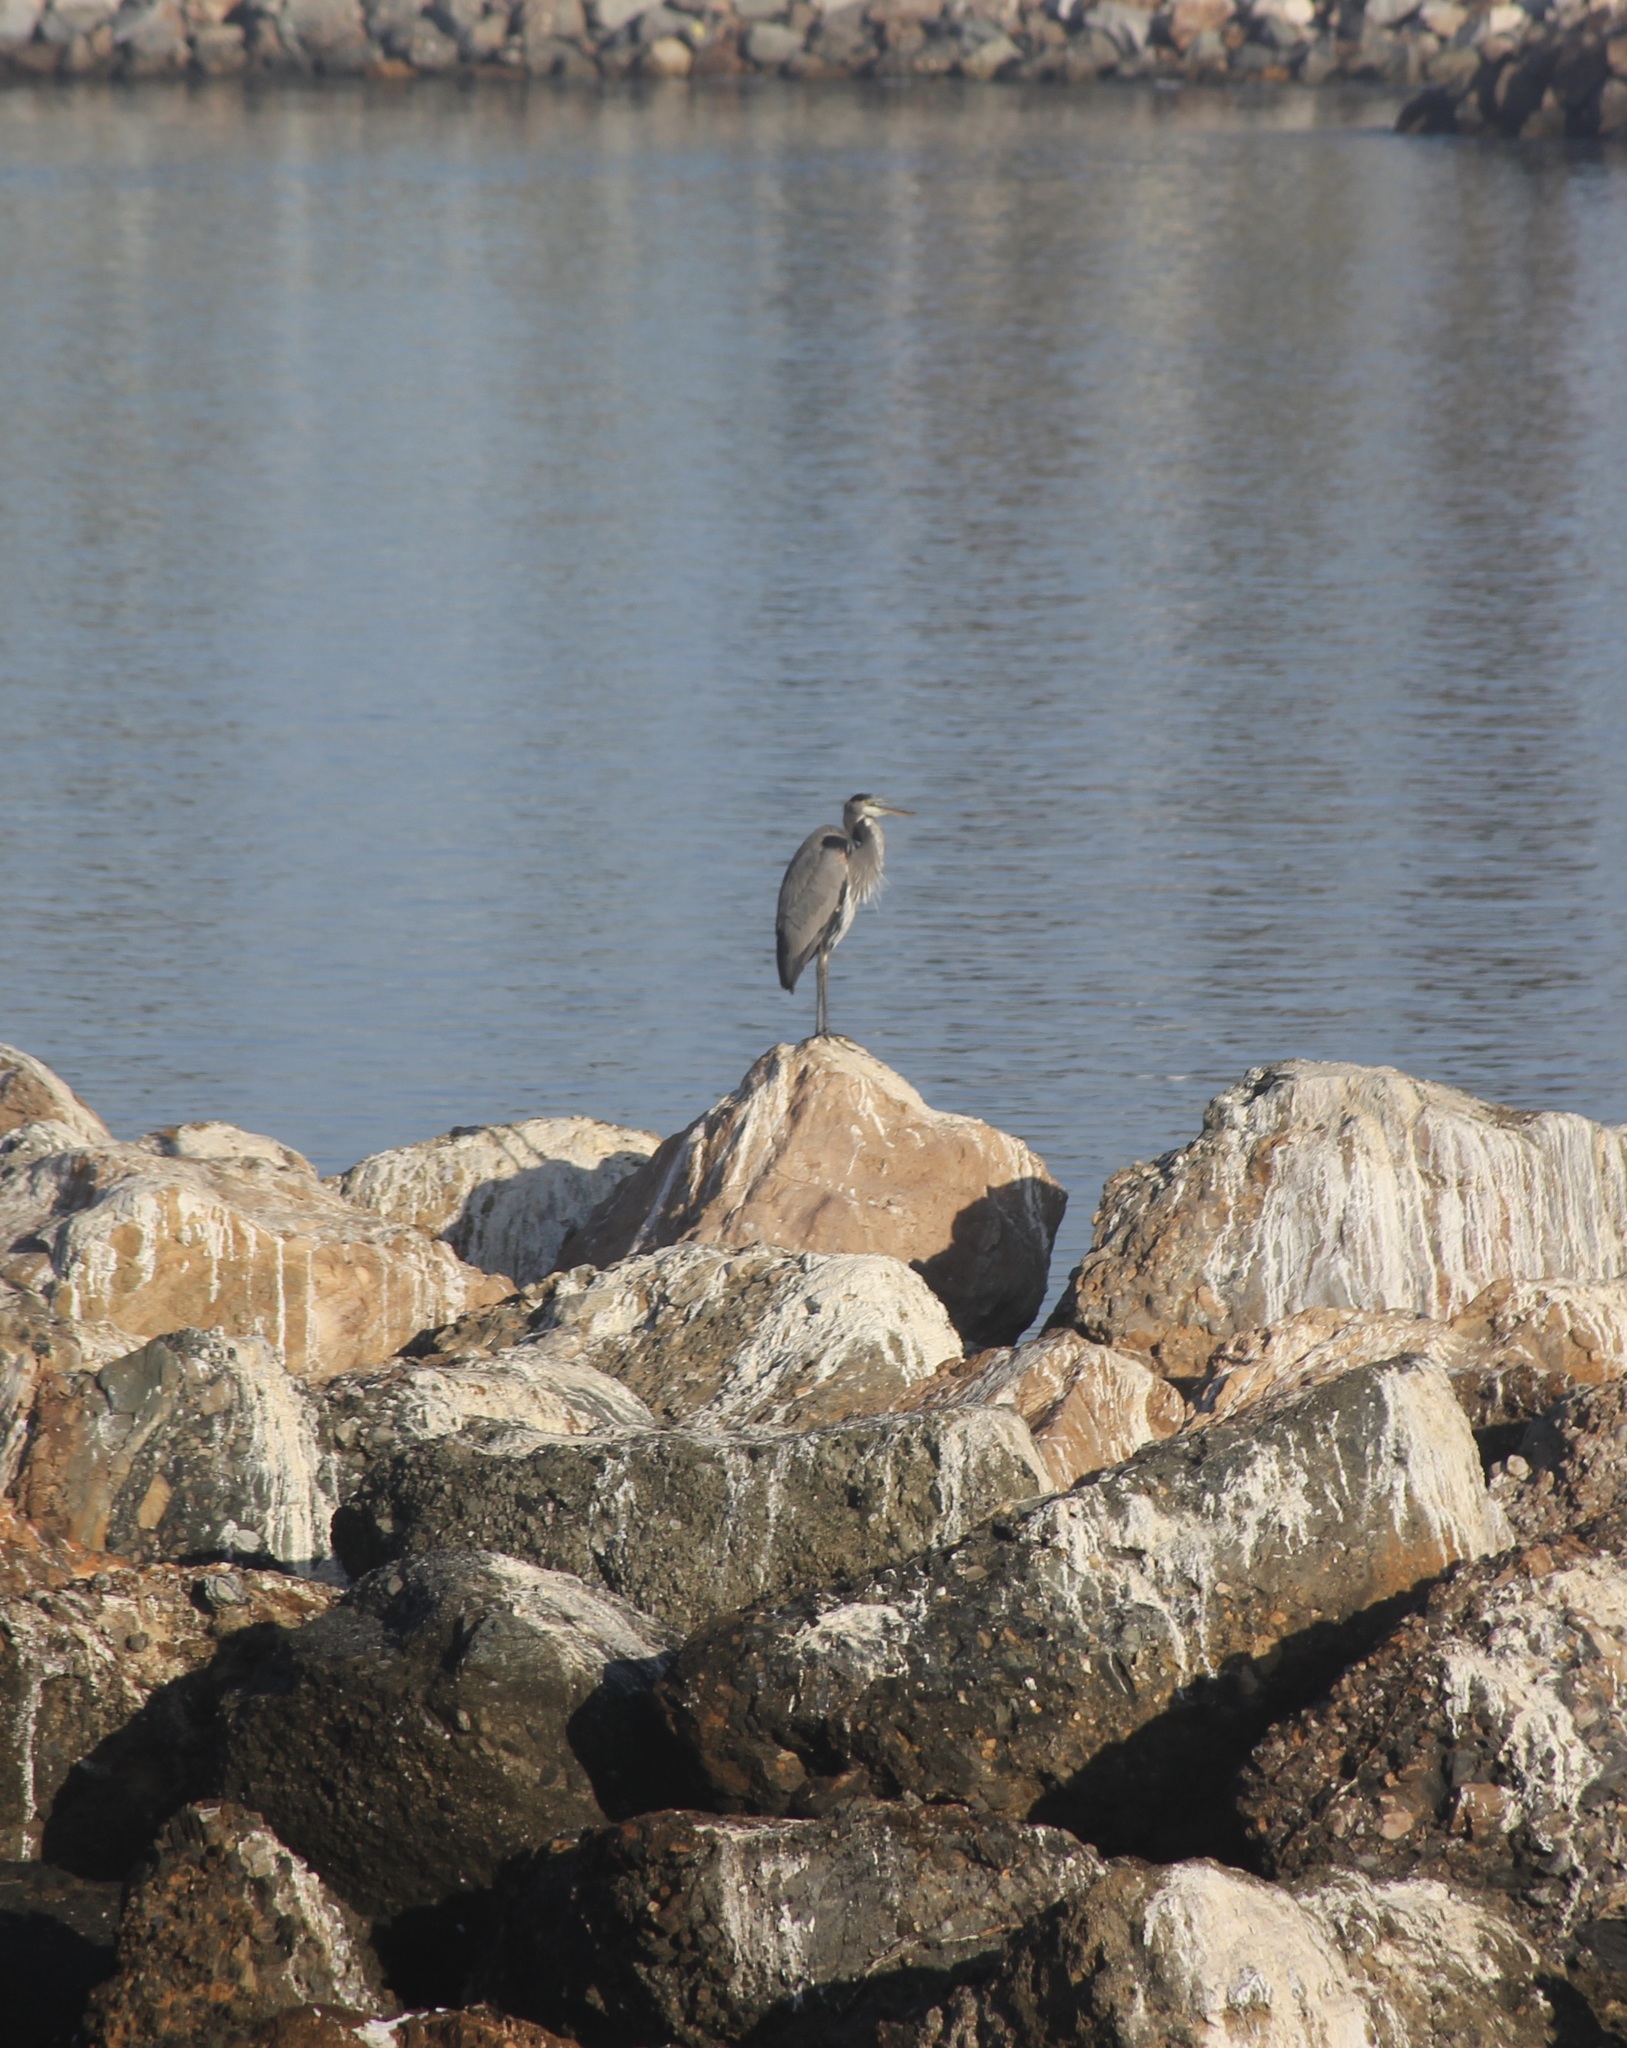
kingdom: Animalia
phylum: Chordata
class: Aves
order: Pelecaniformes
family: Ardeidae
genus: Ardea
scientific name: Ardea herodias
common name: Great blue heron
